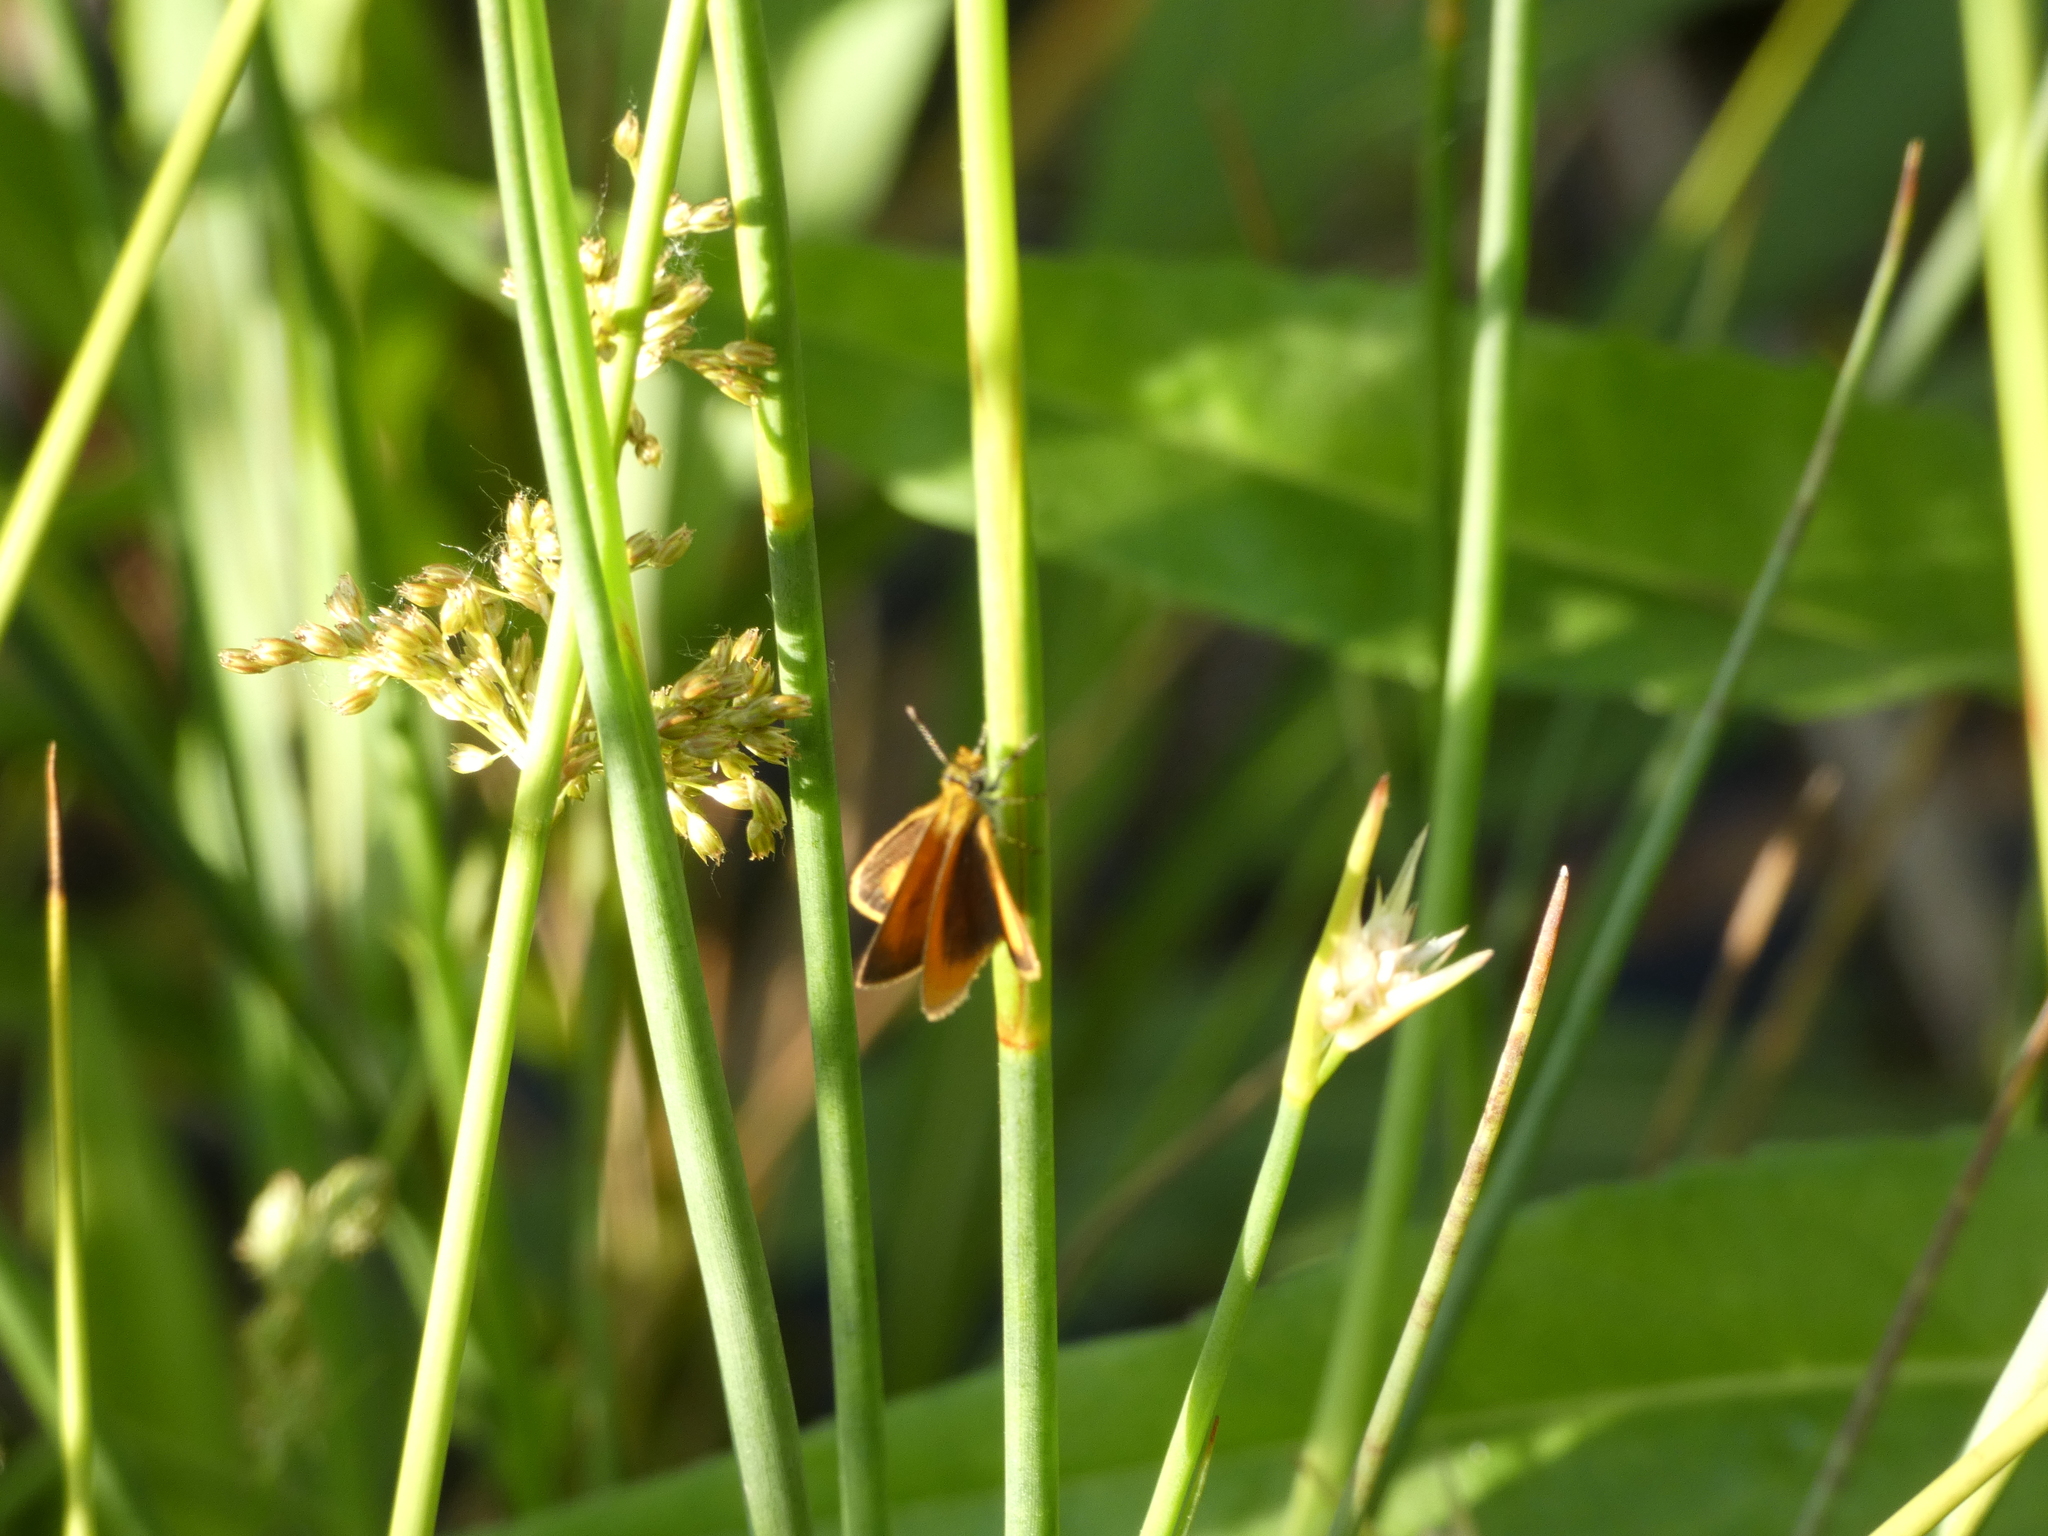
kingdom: Animalia
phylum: Arthropoda
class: Insecta
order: Lepidoptera
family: Hesperiidae
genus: Ancyloxypha
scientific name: Ancyloxypha numitor
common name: Least skipper
